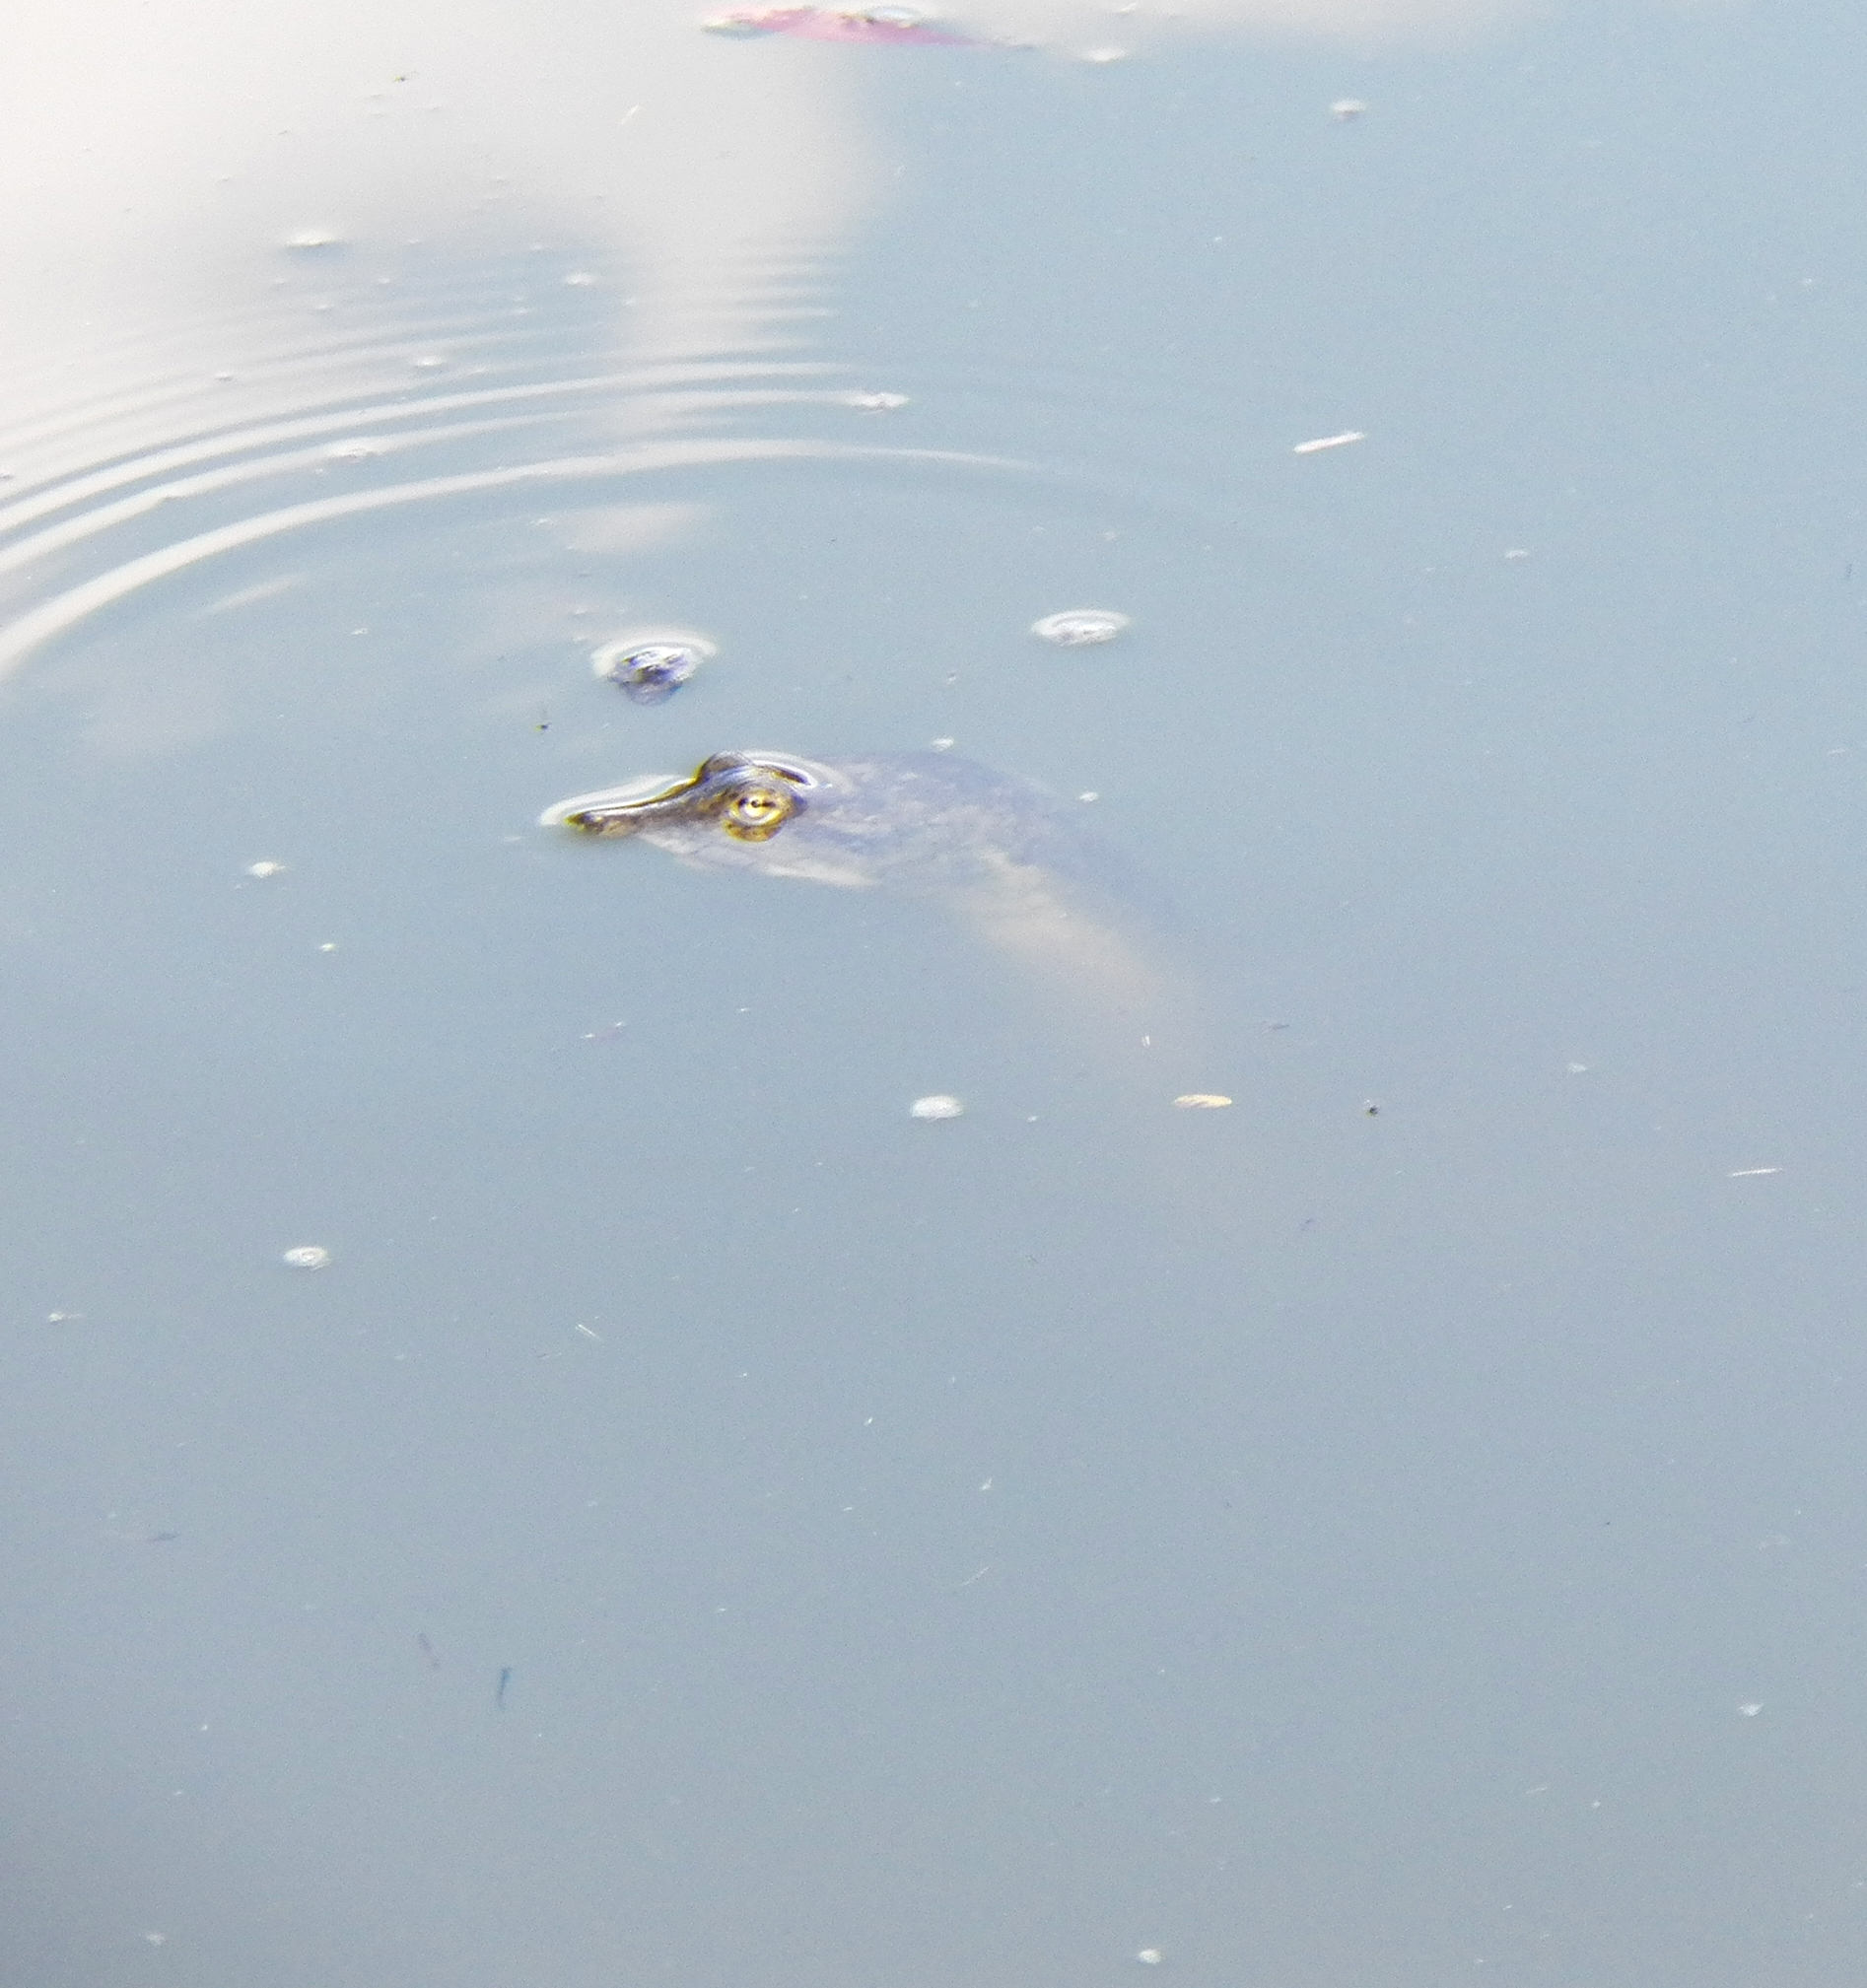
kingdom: Animalia
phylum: Chordata
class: Testudines
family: Trionychidae
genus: Apalone
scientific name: Apalone spinifera
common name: Spiny softshell turtle
